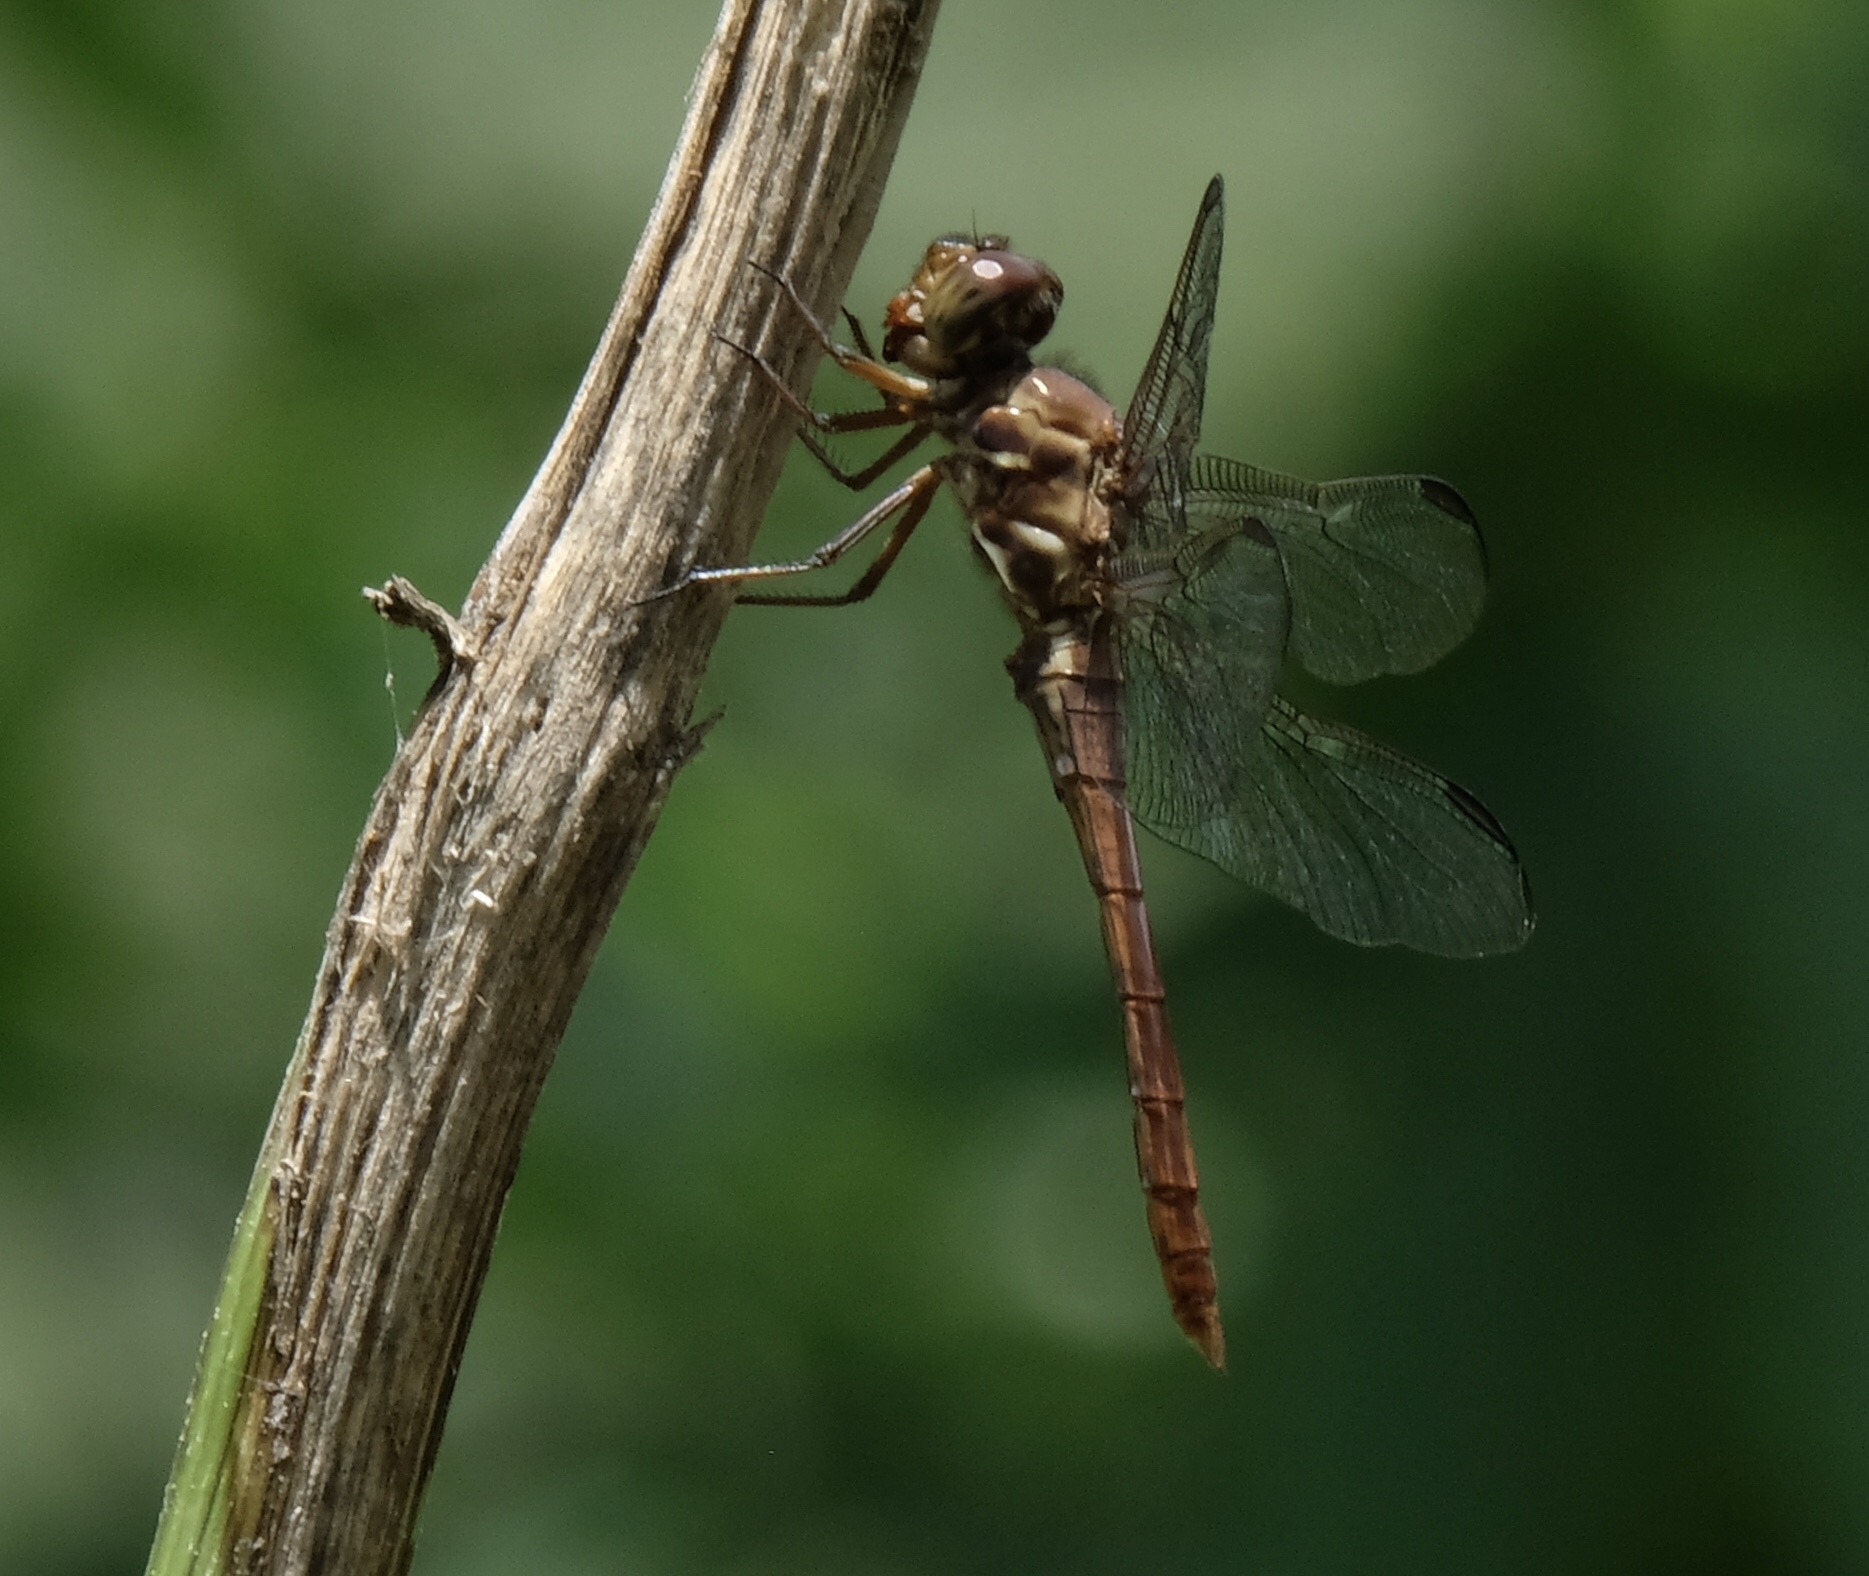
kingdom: Animalia
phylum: Arthropoda
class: Insecta
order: Odonata
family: Libellulidae
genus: Orthemis
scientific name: Orthemis ferruginea
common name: Roseate skimmer
